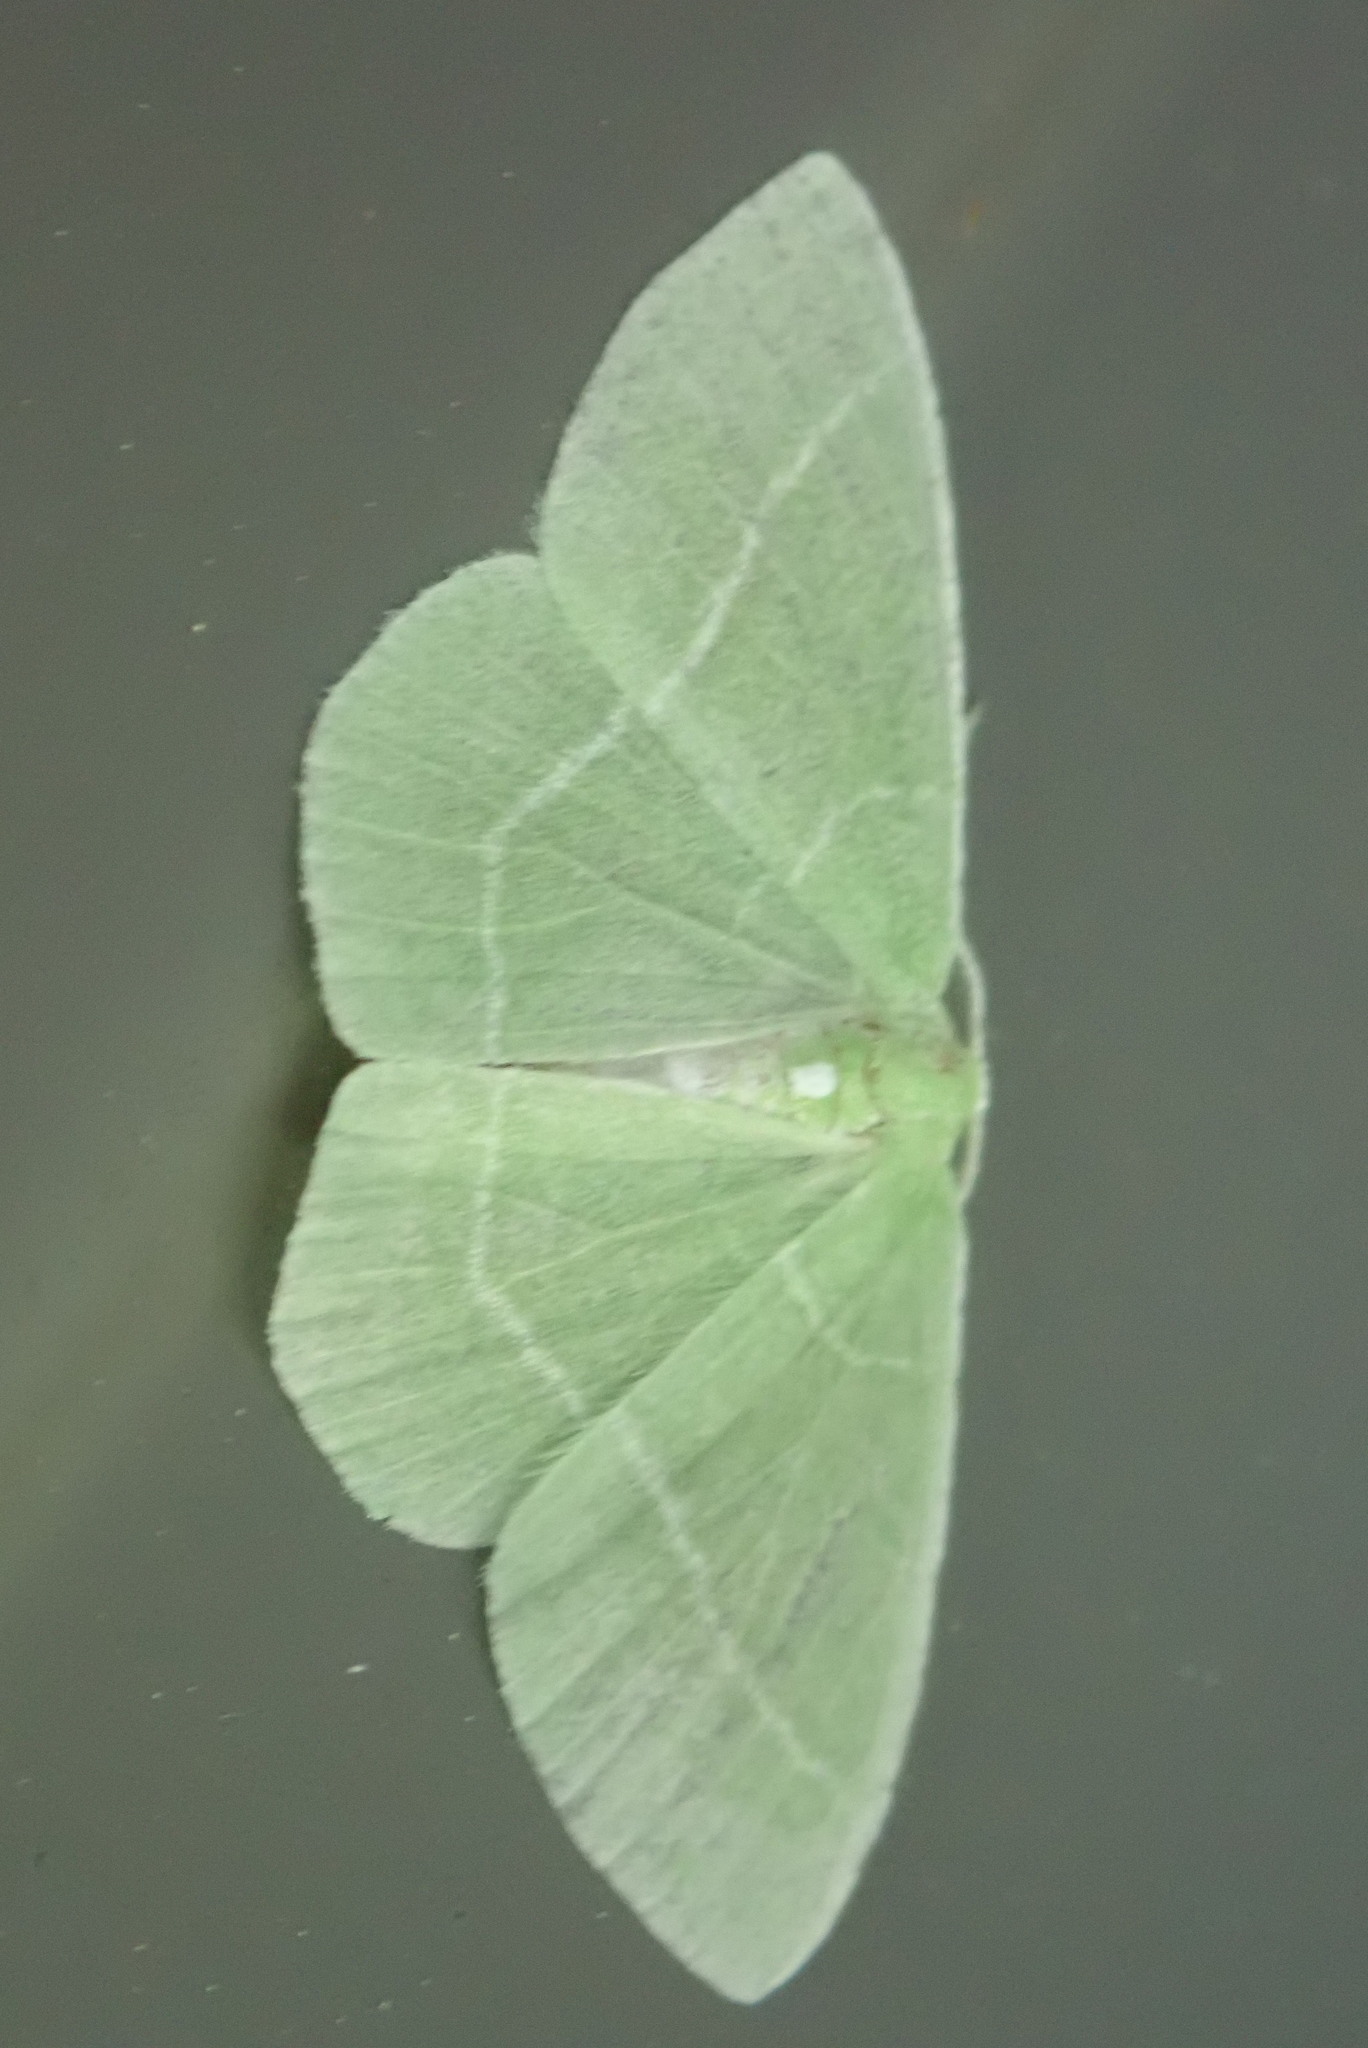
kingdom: Animalia
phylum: Arthropoda
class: Insecta
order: Lepidoptera
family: Geometridae
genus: Nemoria
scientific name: Nemoria mimosaria
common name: White-fringed emerald
